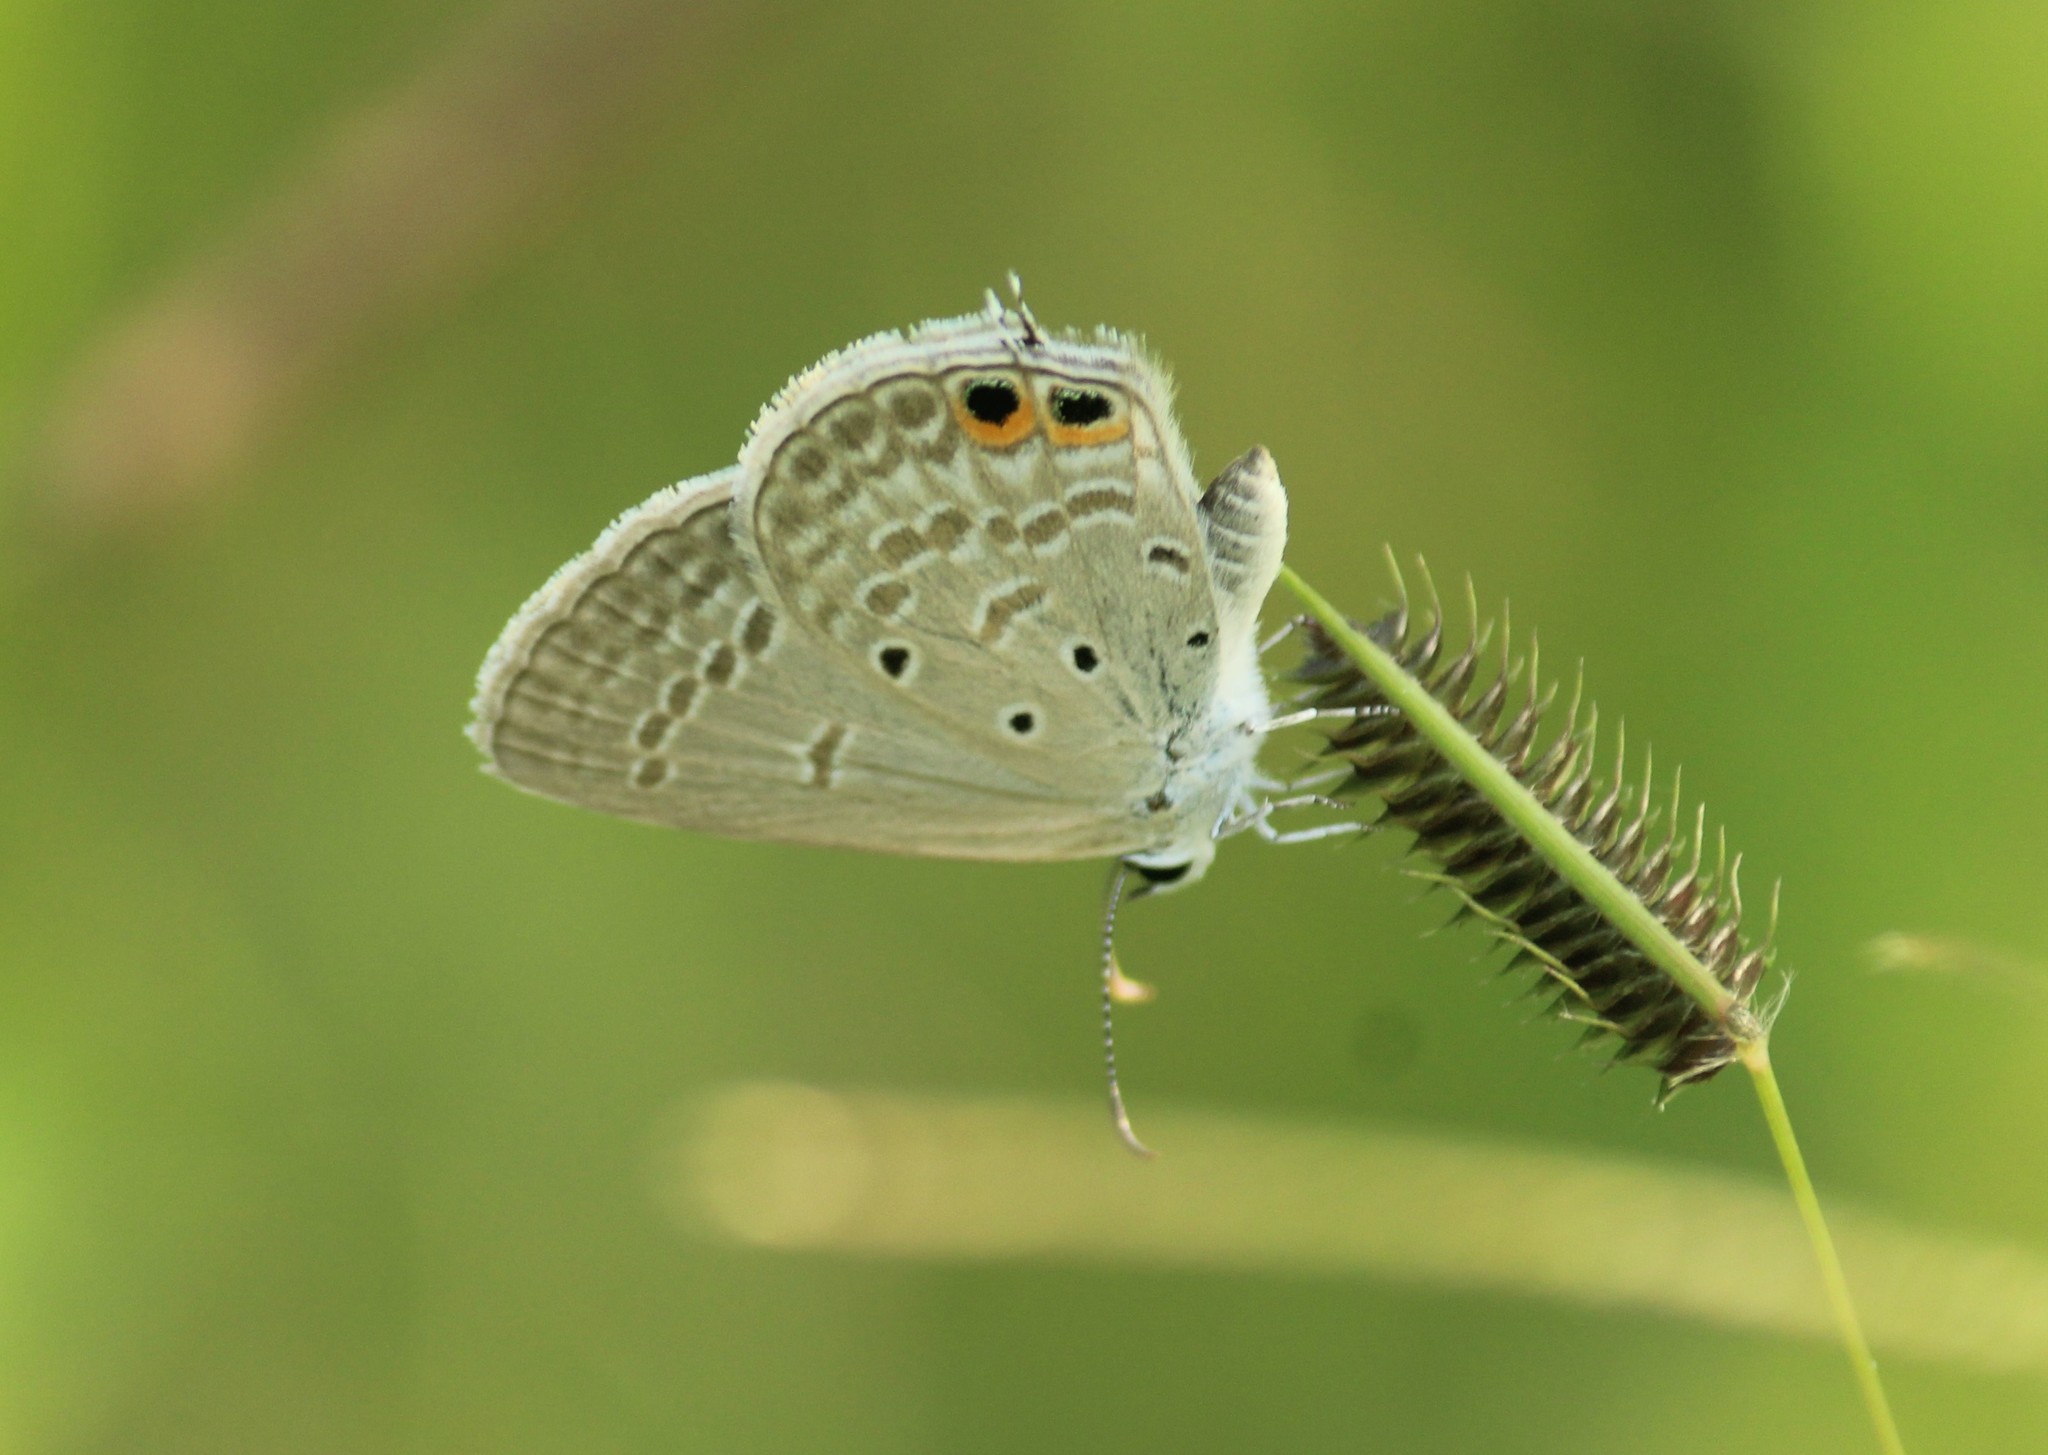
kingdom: Animalia
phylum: Arthropoda
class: Insecta
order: Lepidoptera
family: Lycaenidae
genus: Euchrysops
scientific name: Euchrysops cnejus
